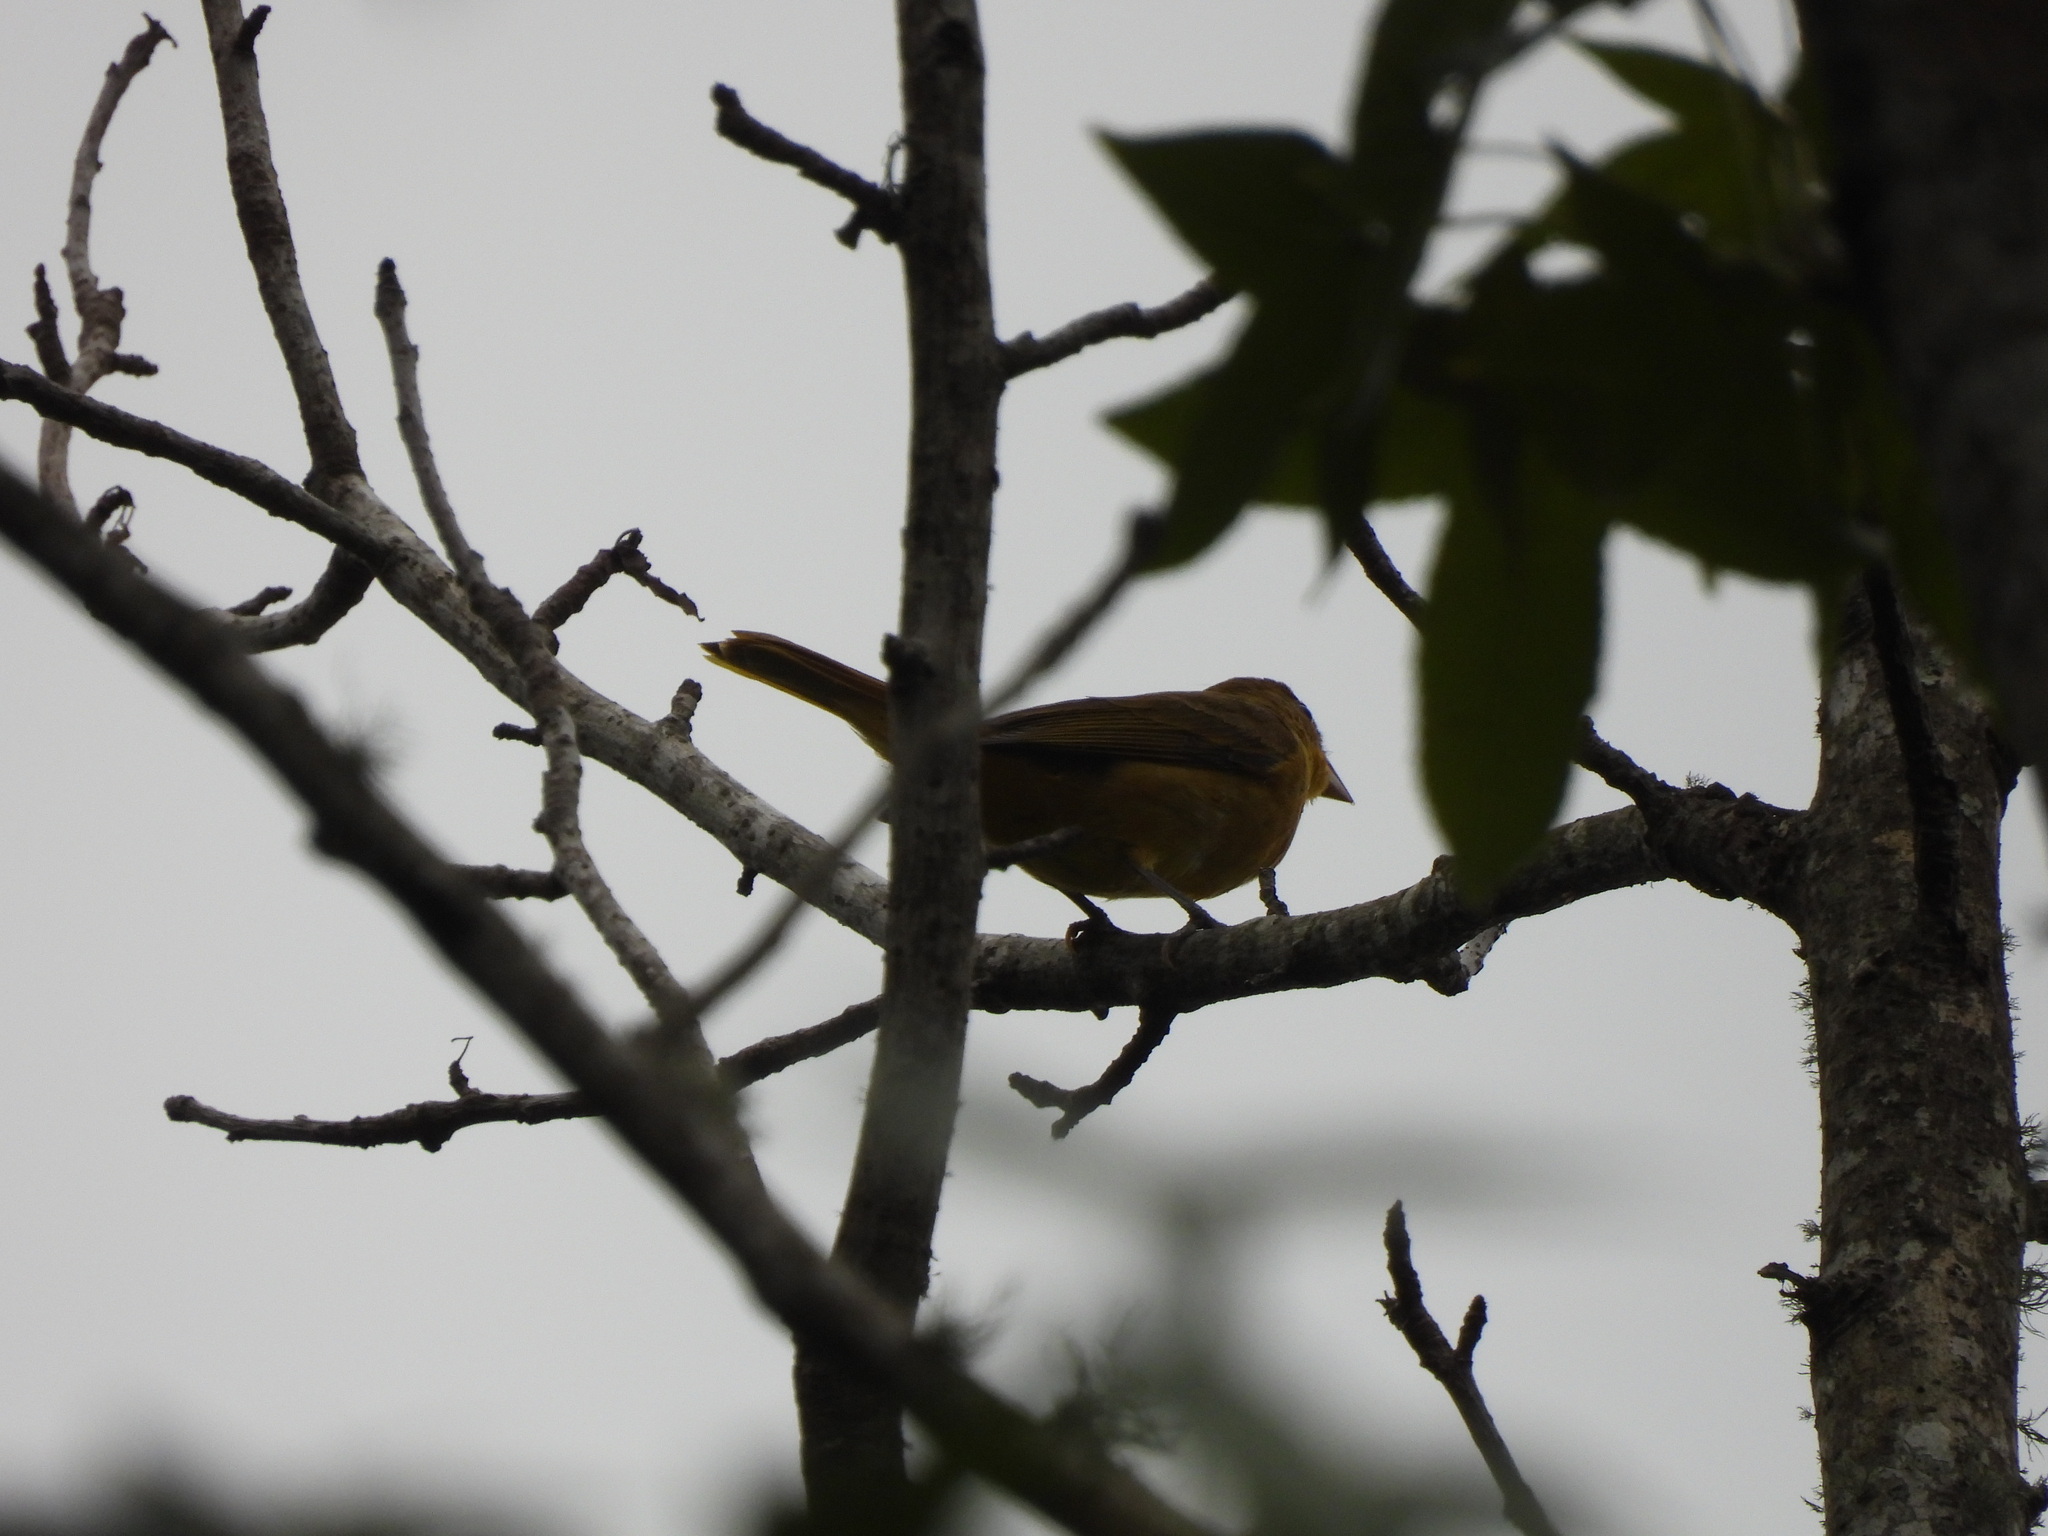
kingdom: Animalia
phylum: Chordata
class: Aves
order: Passeriformes
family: Cardinalidae
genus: Piranga
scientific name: Piranga rubra
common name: Summer tanager
